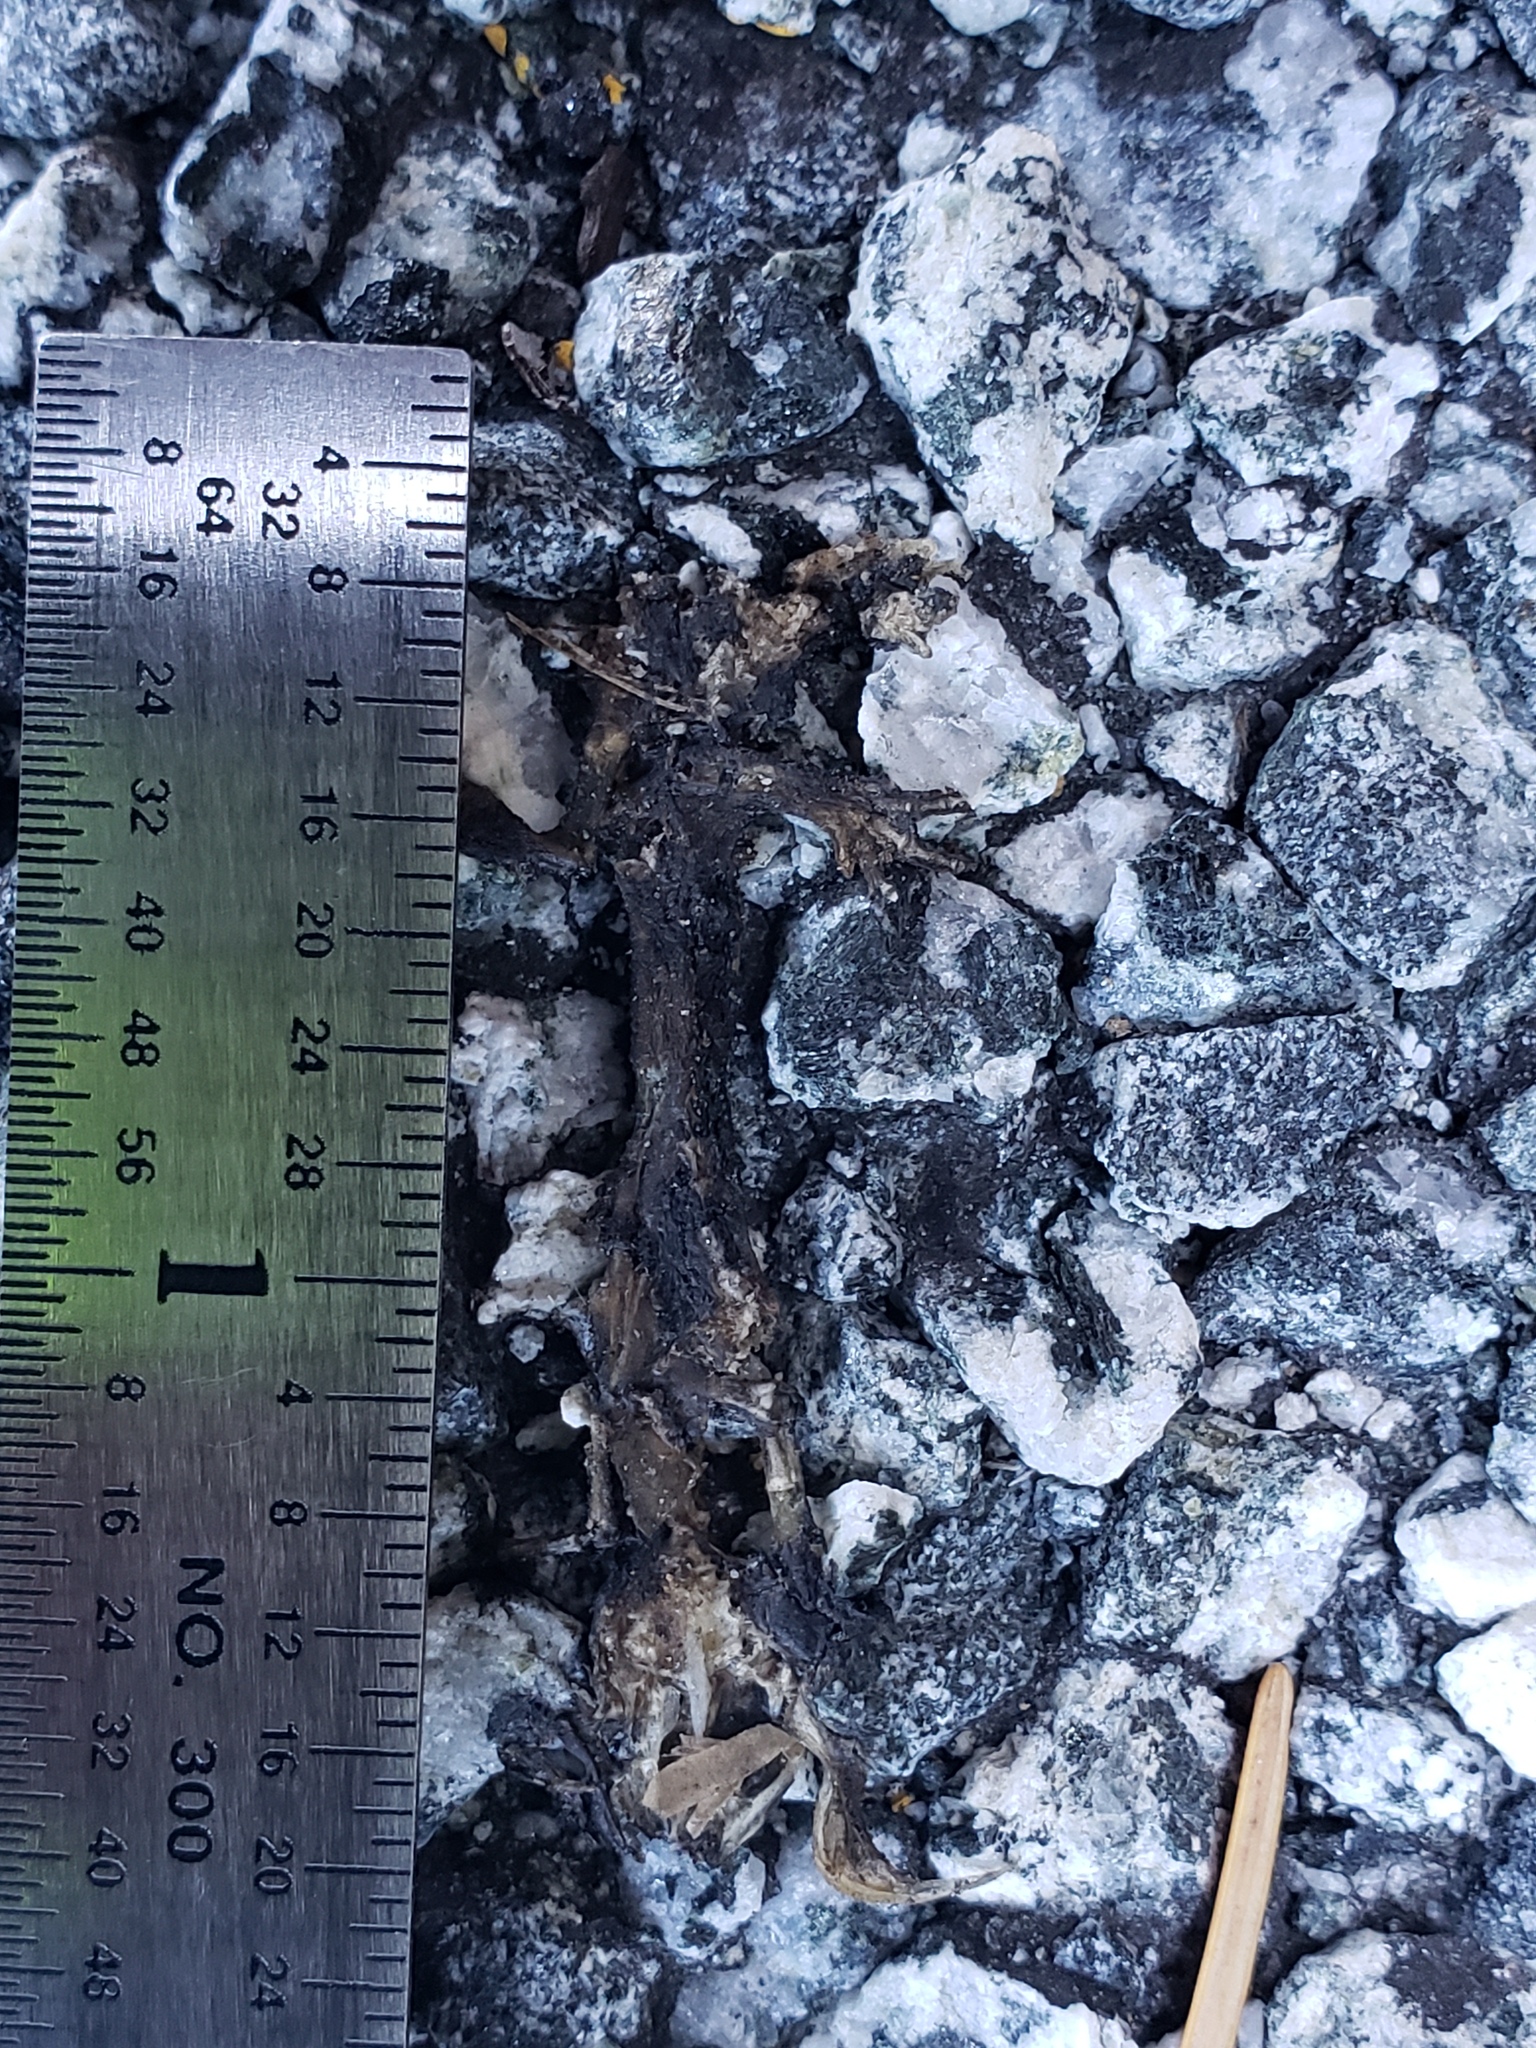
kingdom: Animalia
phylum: Chordata
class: Amphibia
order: Caudata
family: Salamandridae
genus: Taricha
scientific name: Taricha
